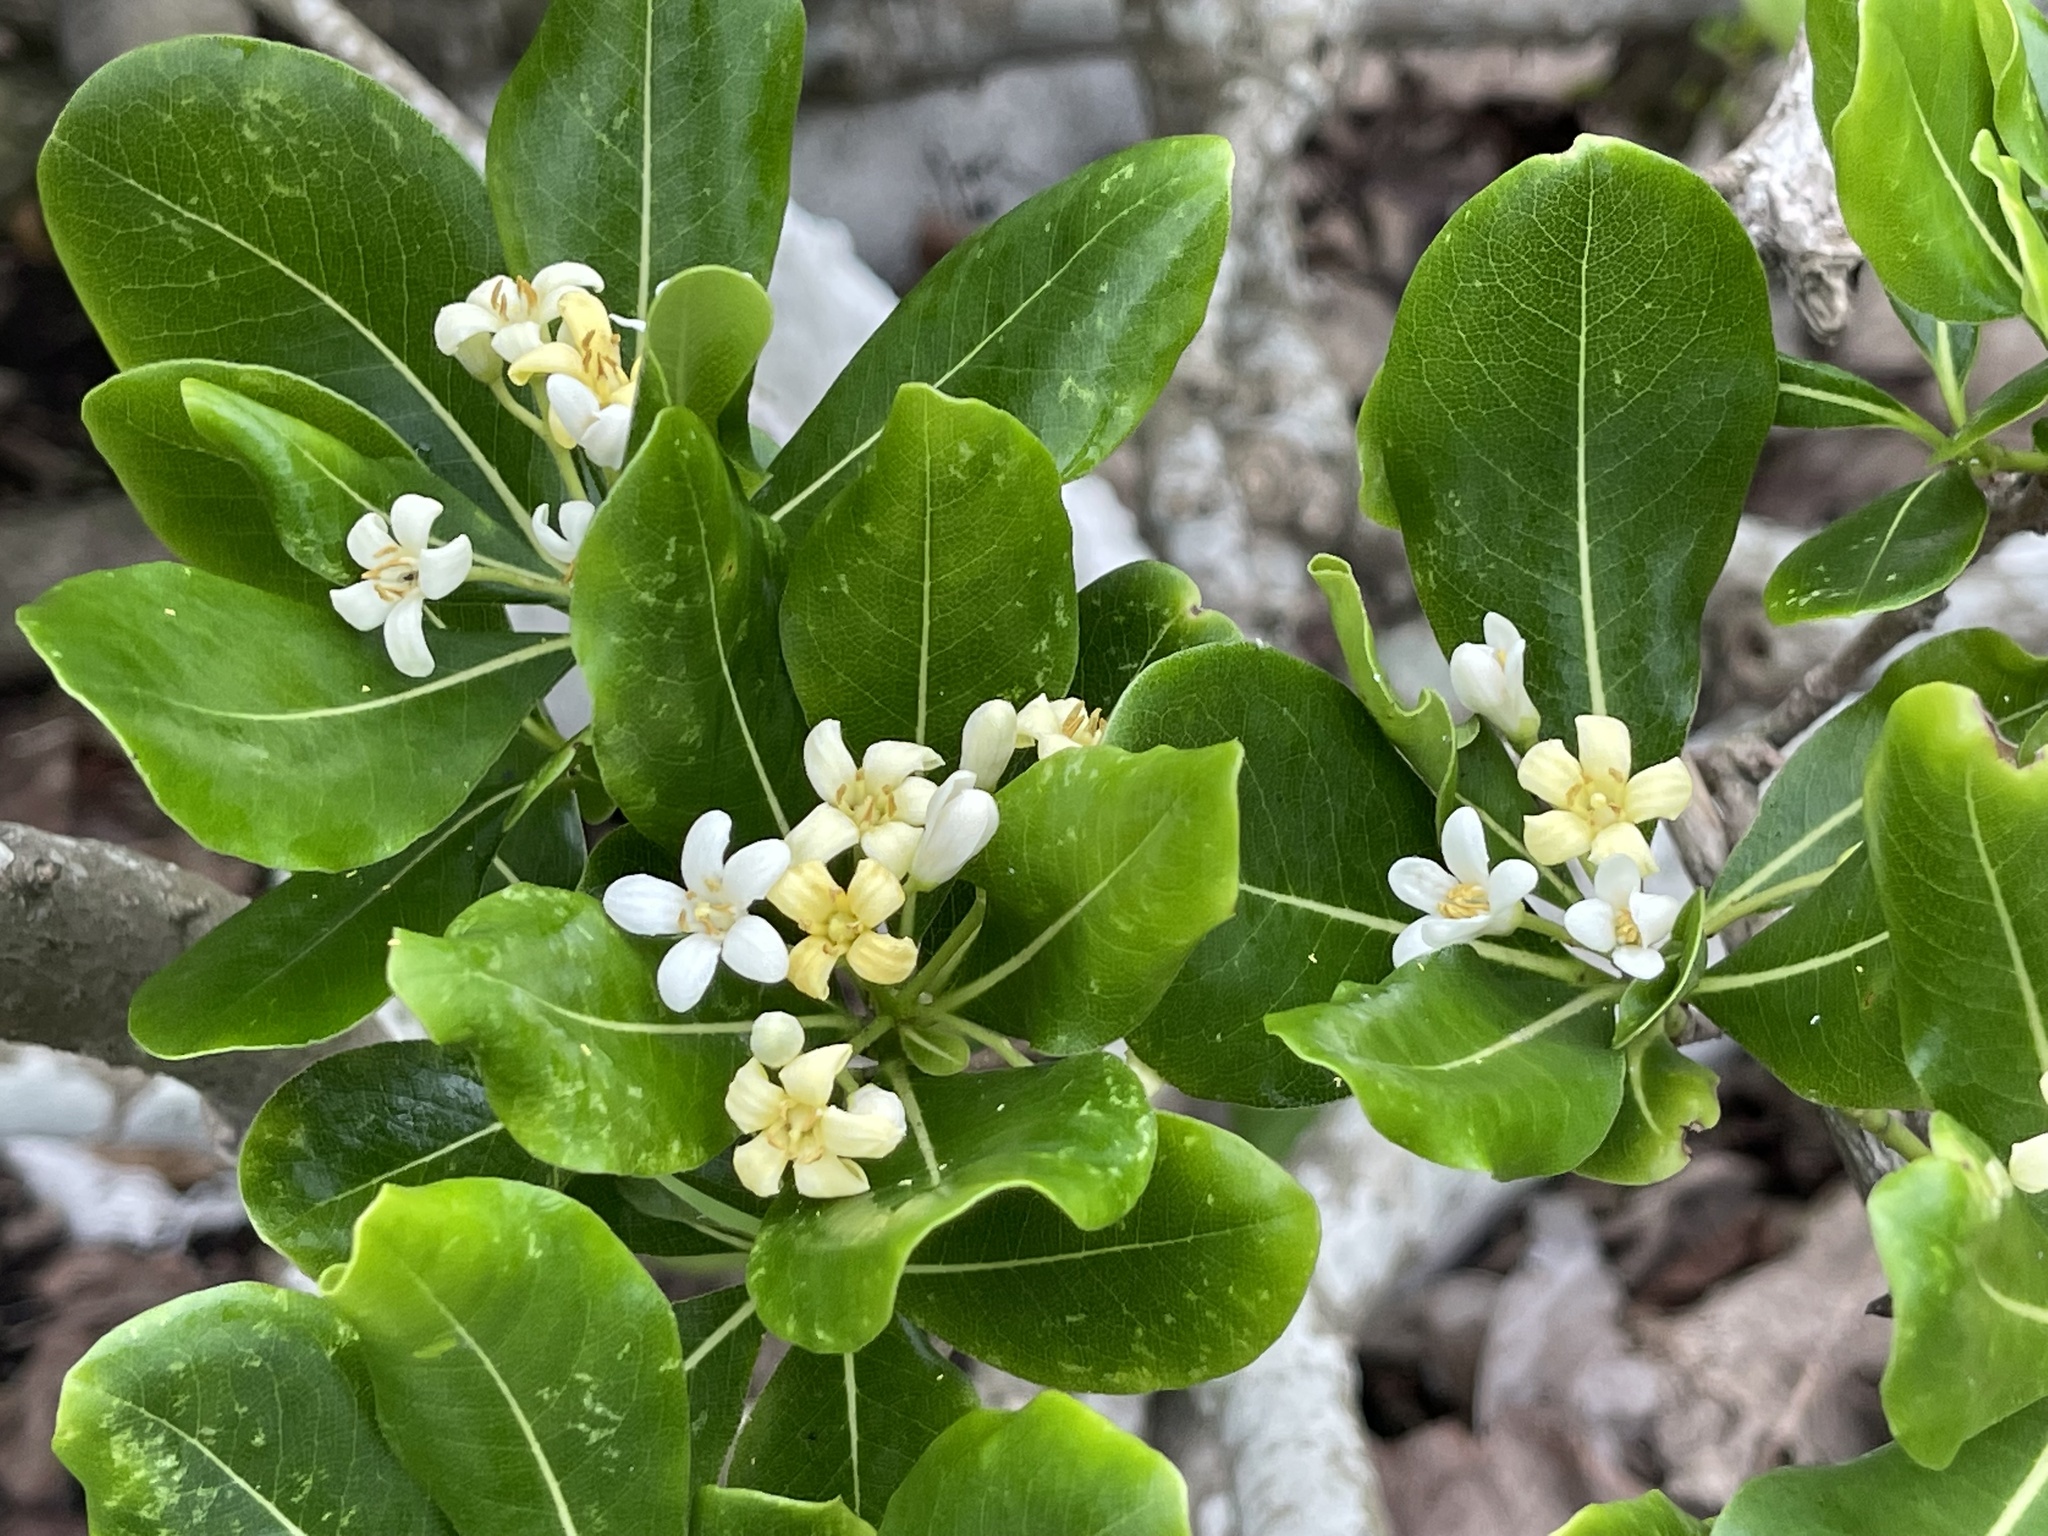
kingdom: Plantae
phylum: Tracheophyta
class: Magnoliopsida
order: Apiales
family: Pittosporaceae
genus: Pittosporum
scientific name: Pittosporum tobira
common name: Japanese cheesewood
